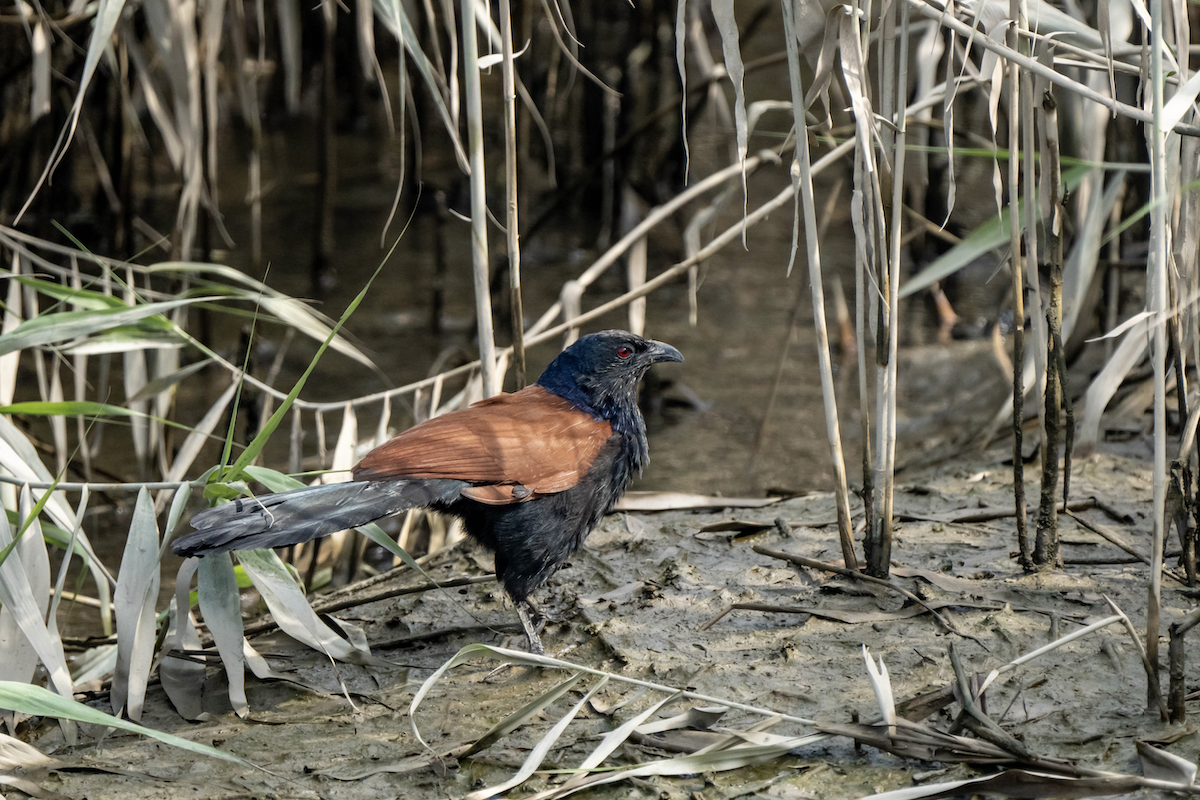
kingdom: Animalia
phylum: Chordata
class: Aves
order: Cuculiformes
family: Cuculidae
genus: Centropus
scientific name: Centropus sinensis
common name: Greater coucal
